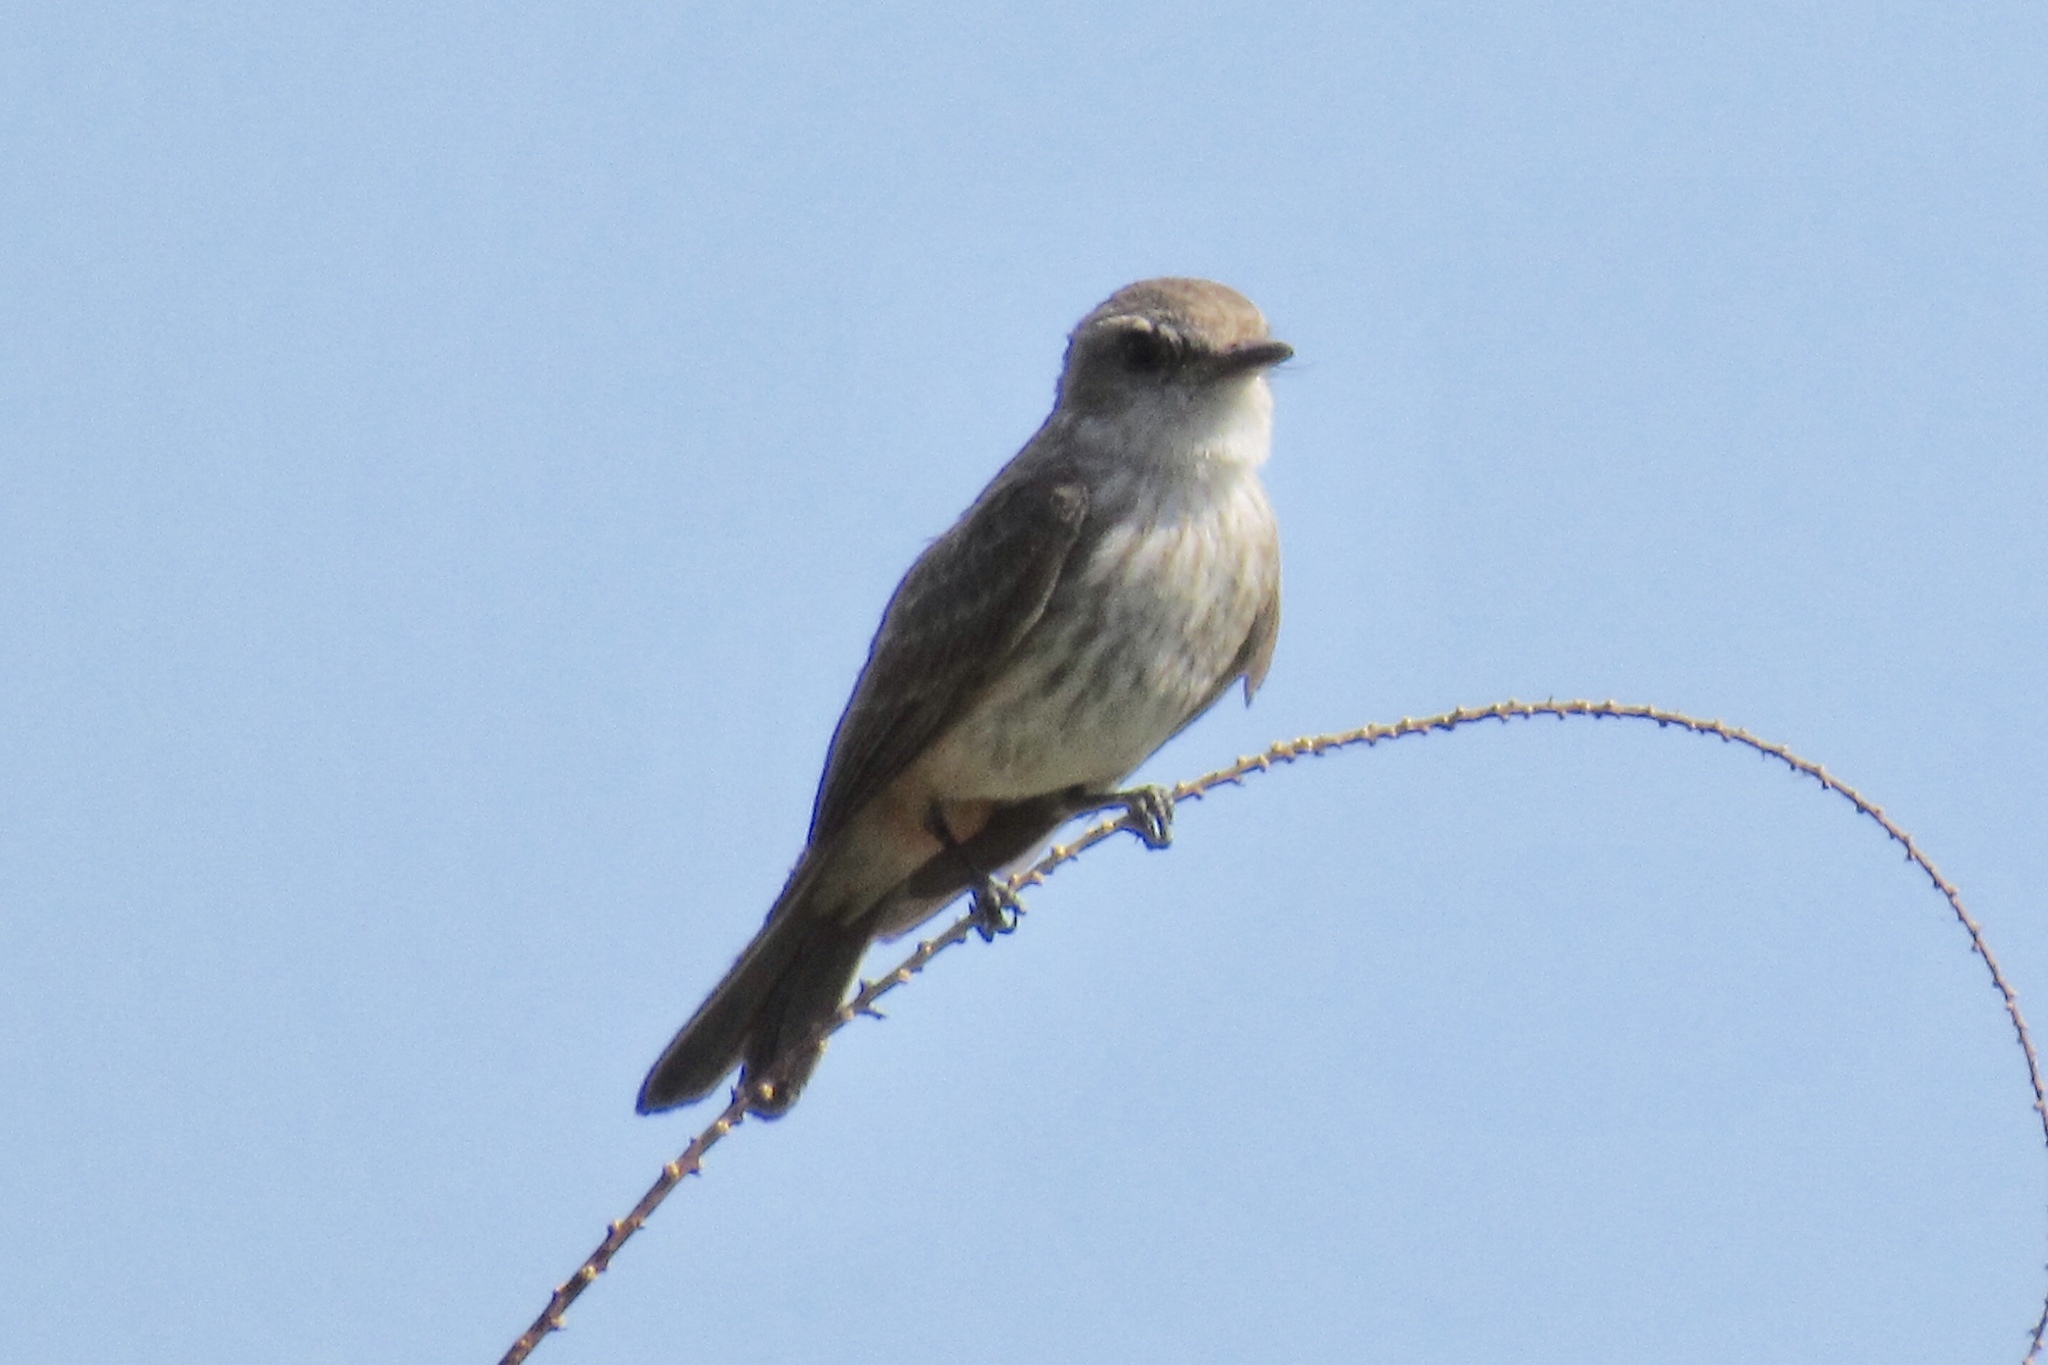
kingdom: Animalia
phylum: Chordata
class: Aves
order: Passeriformes
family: Tyrannidae
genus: Pyrocephalus
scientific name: Pyrocephalus rubinus
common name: Vermilion flycatcher
